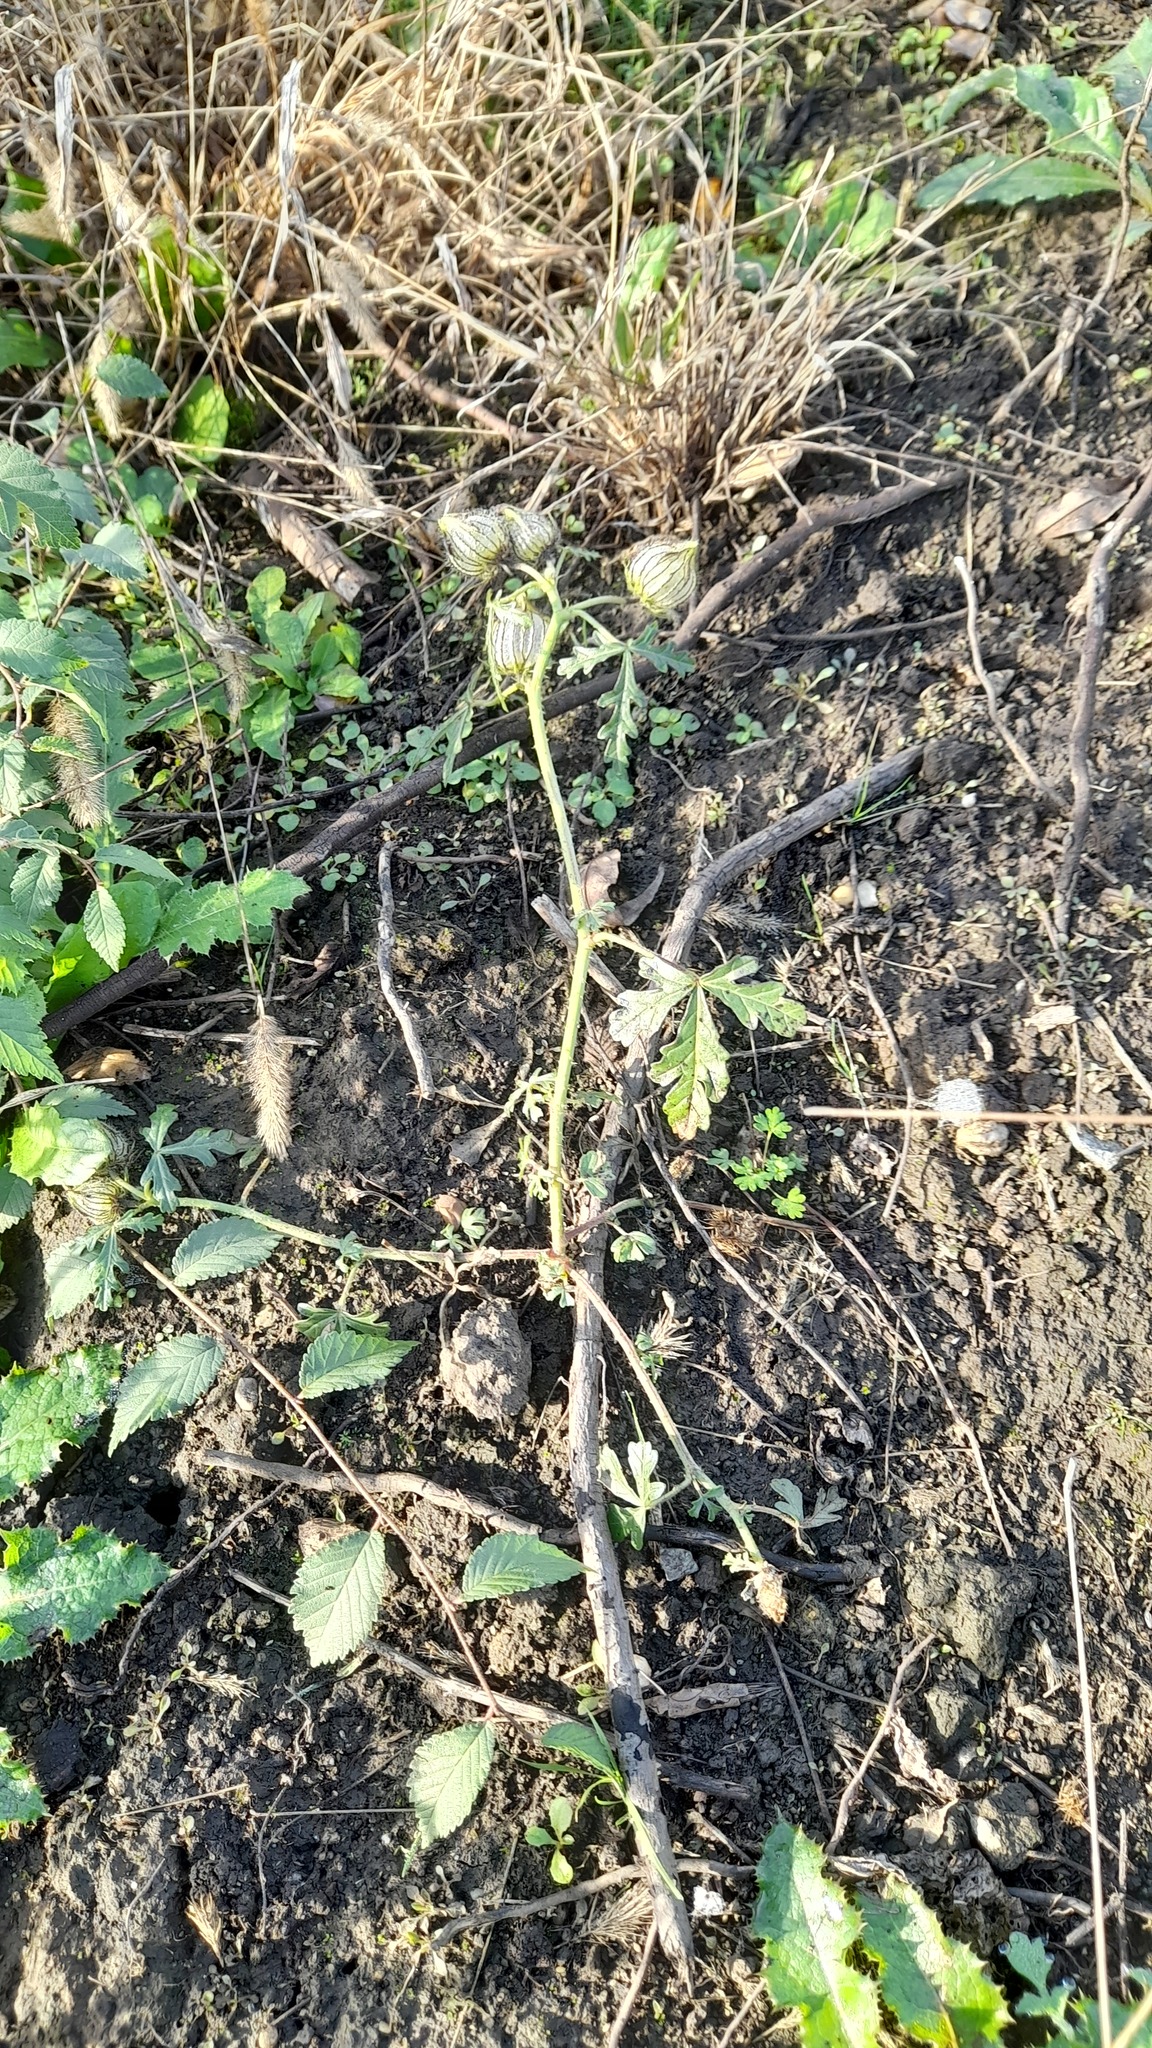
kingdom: Plantae
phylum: Tracheophyta
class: Magnoliopsida
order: Malvales
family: Malvaceae
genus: Hibiscus
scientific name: Hibiscus trionum
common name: Bladder ketmia
